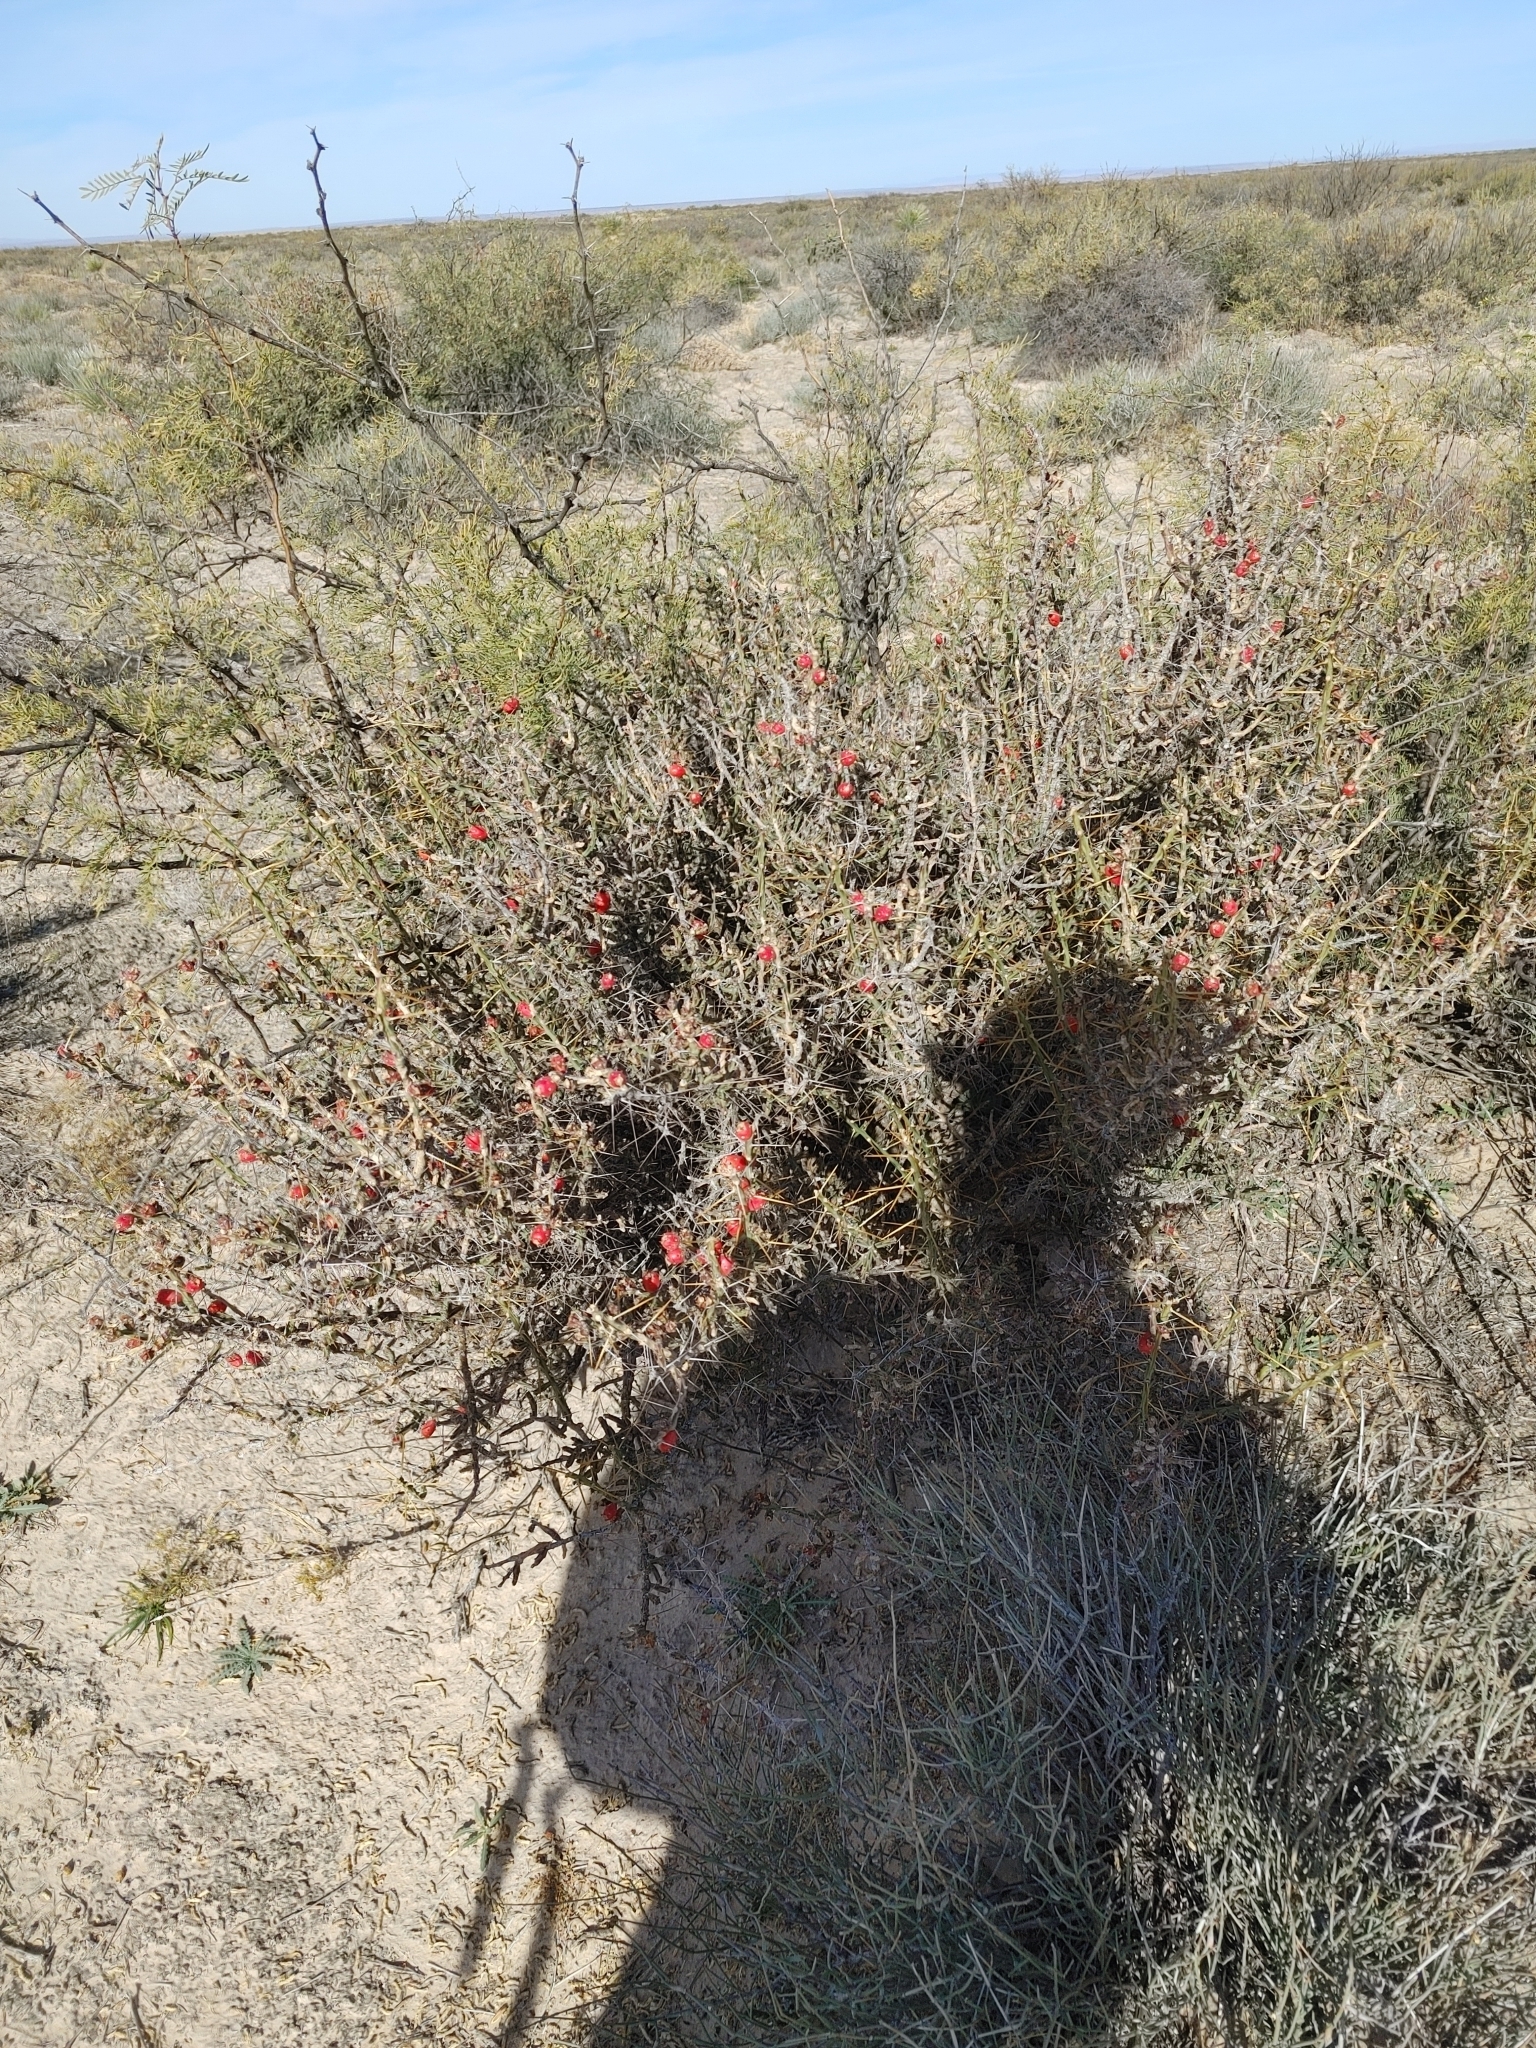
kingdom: Plantae
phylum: Tracheophyta
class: Magnoliopsida
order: Caryophyllales
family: Cactaceae
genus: Cylindropuntia
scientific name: Cylindropuntia leptocaulis
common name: Christmas cactus
